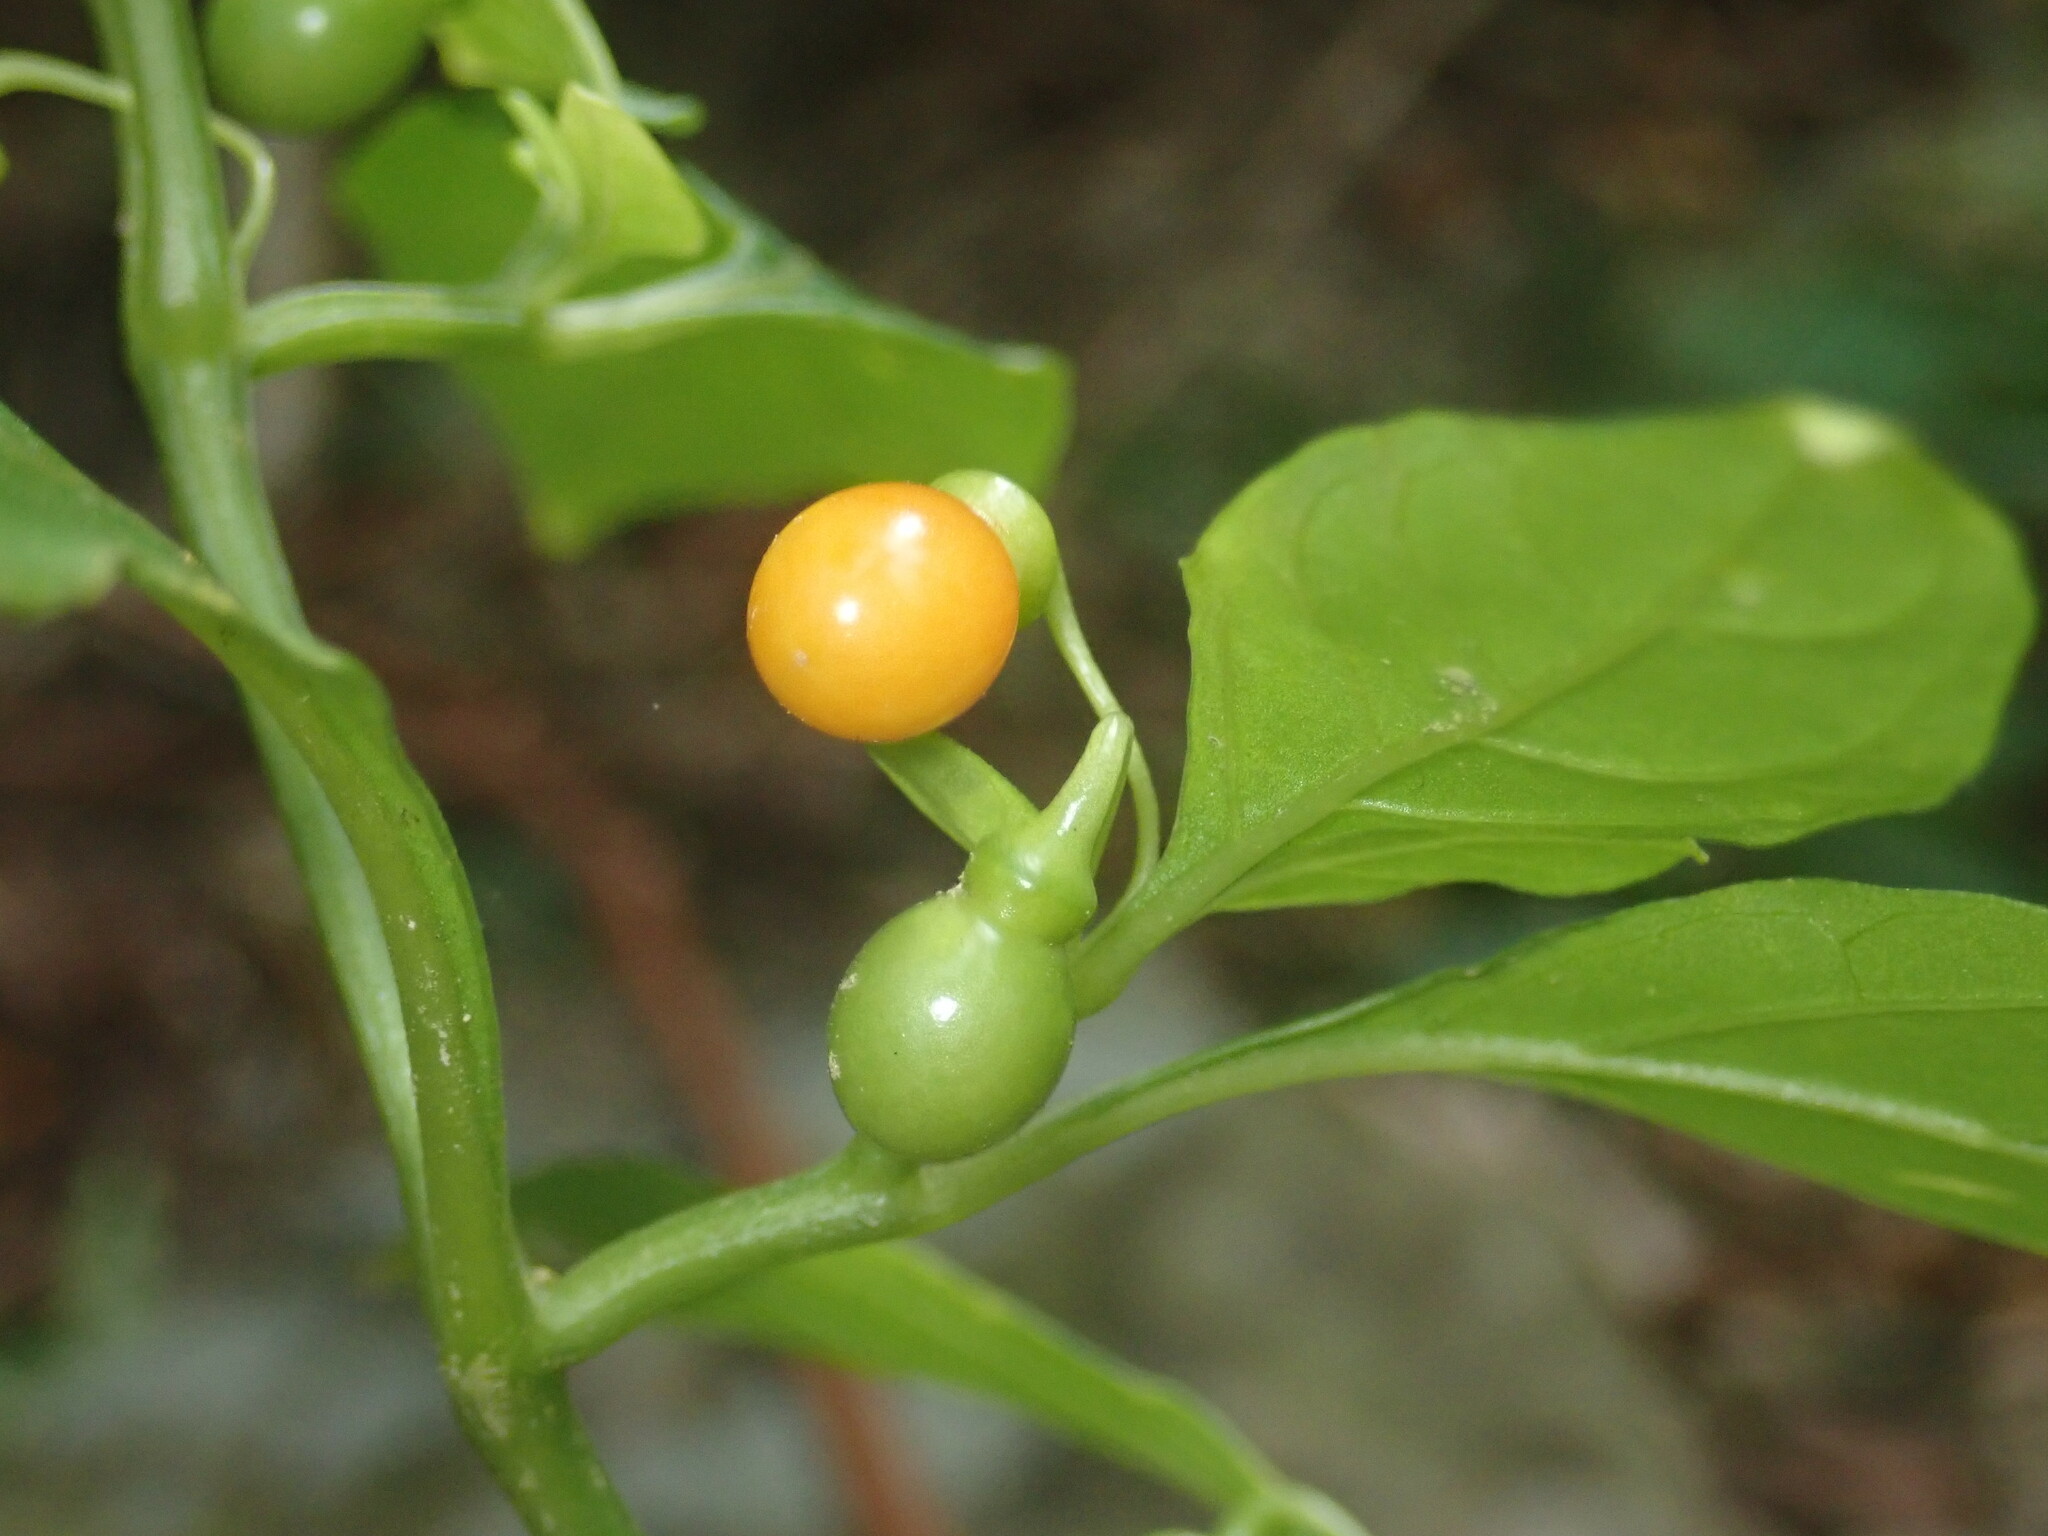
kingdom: Plantae
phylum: Tracheophyta
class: Magnoliopsida
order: Solanales
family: Solanaceae
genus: Tubocapsicum
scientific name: Tubocapsicum anomalum
